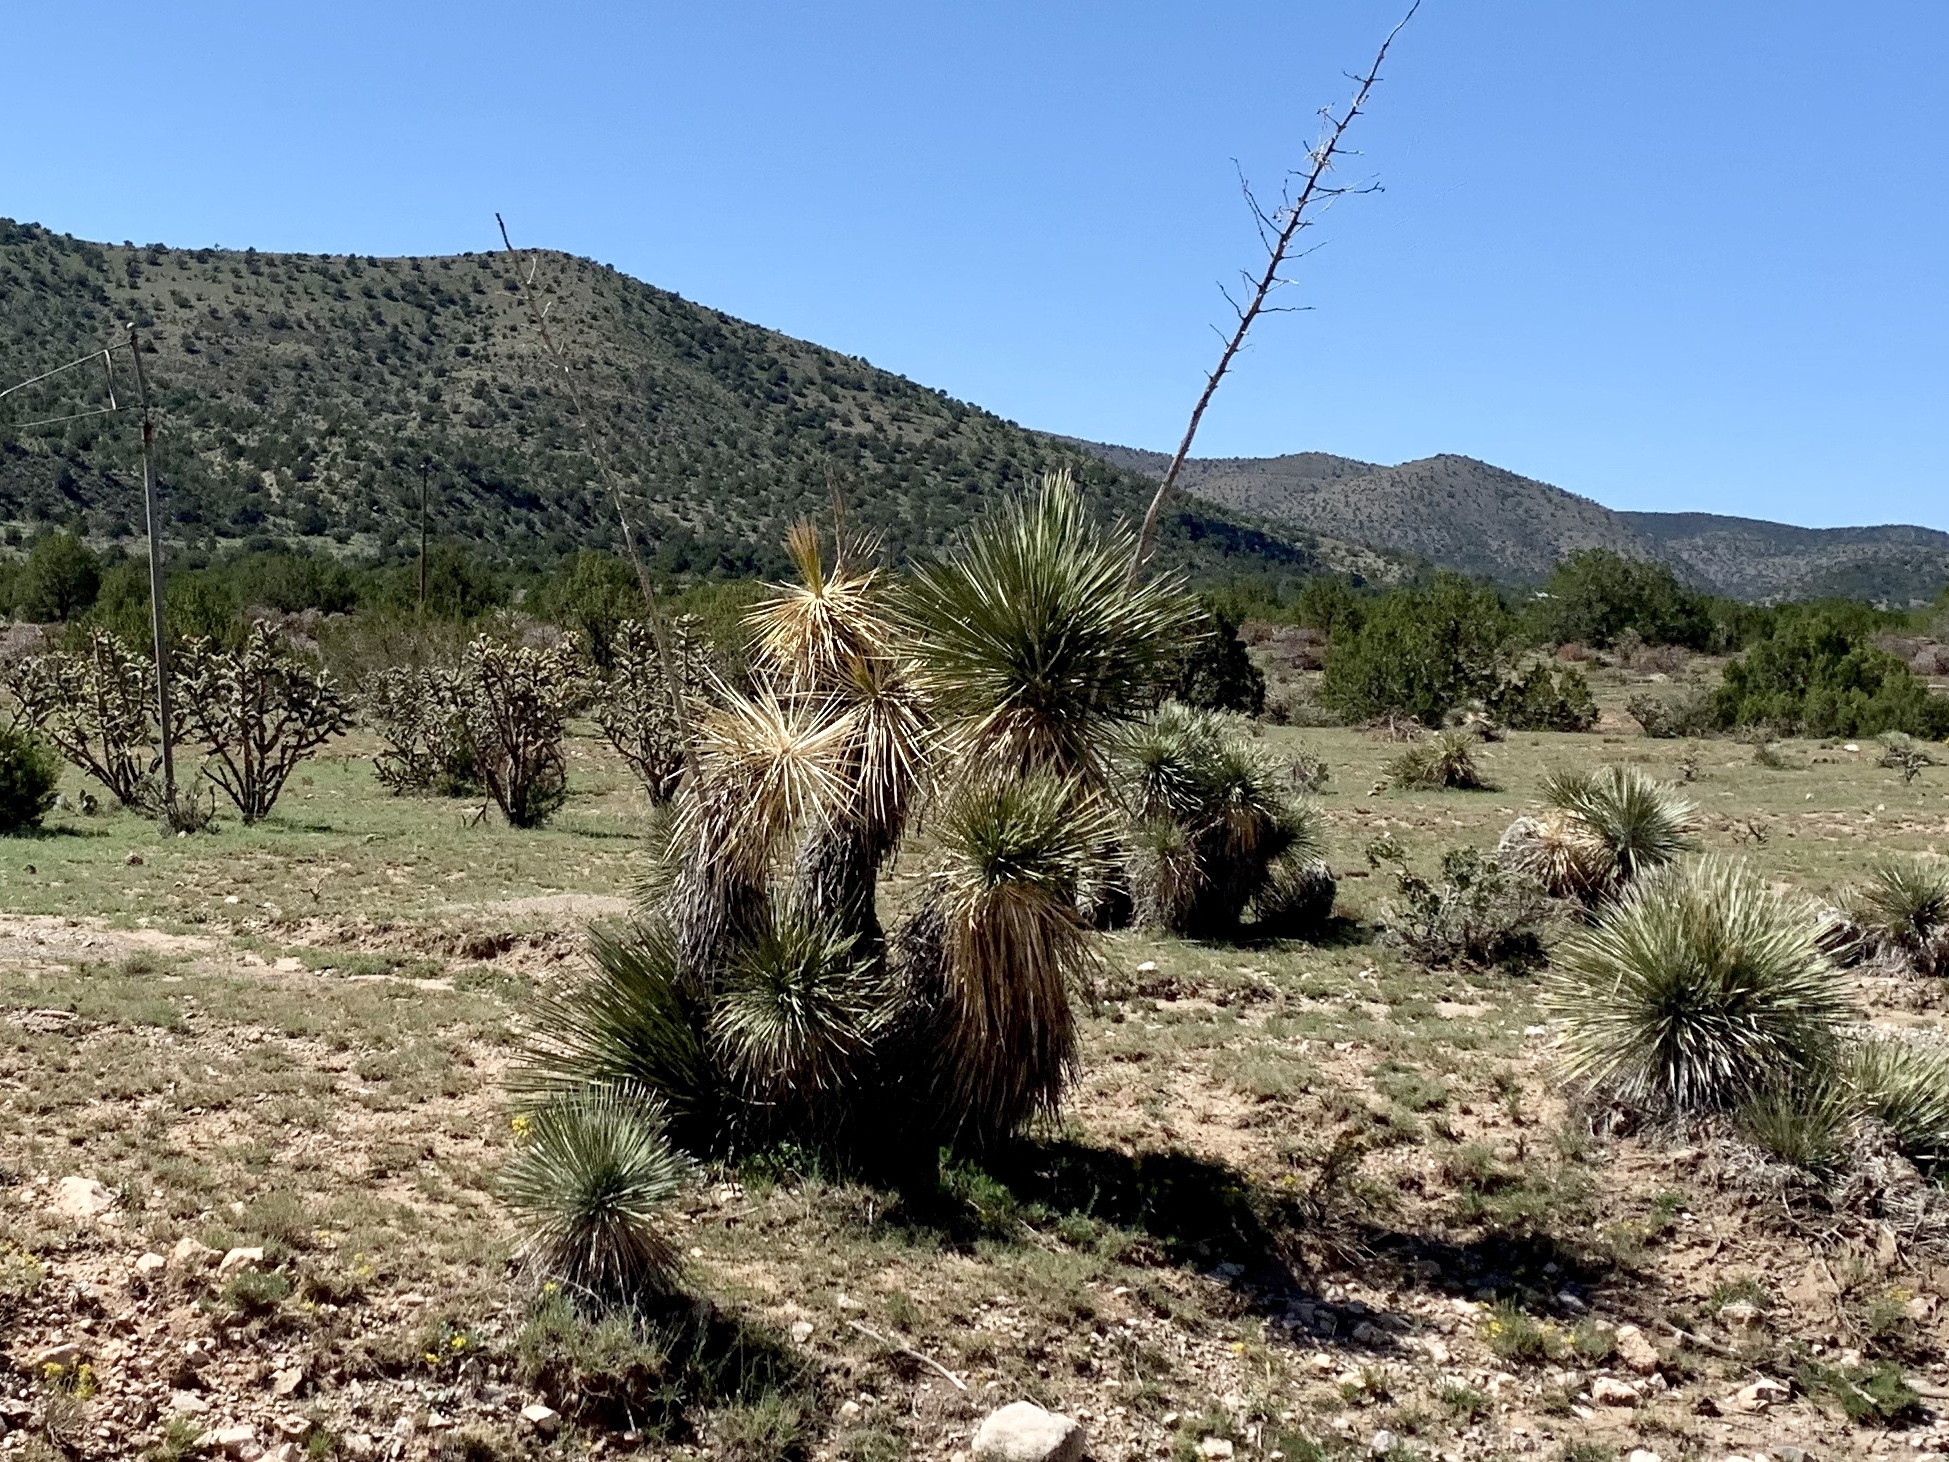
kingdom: Plantae
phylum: Tracheophyta
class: Liliopsida
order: Asparagales
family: Asparagaceae
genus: Yucca
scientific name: Yucca elata
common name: Palmella
